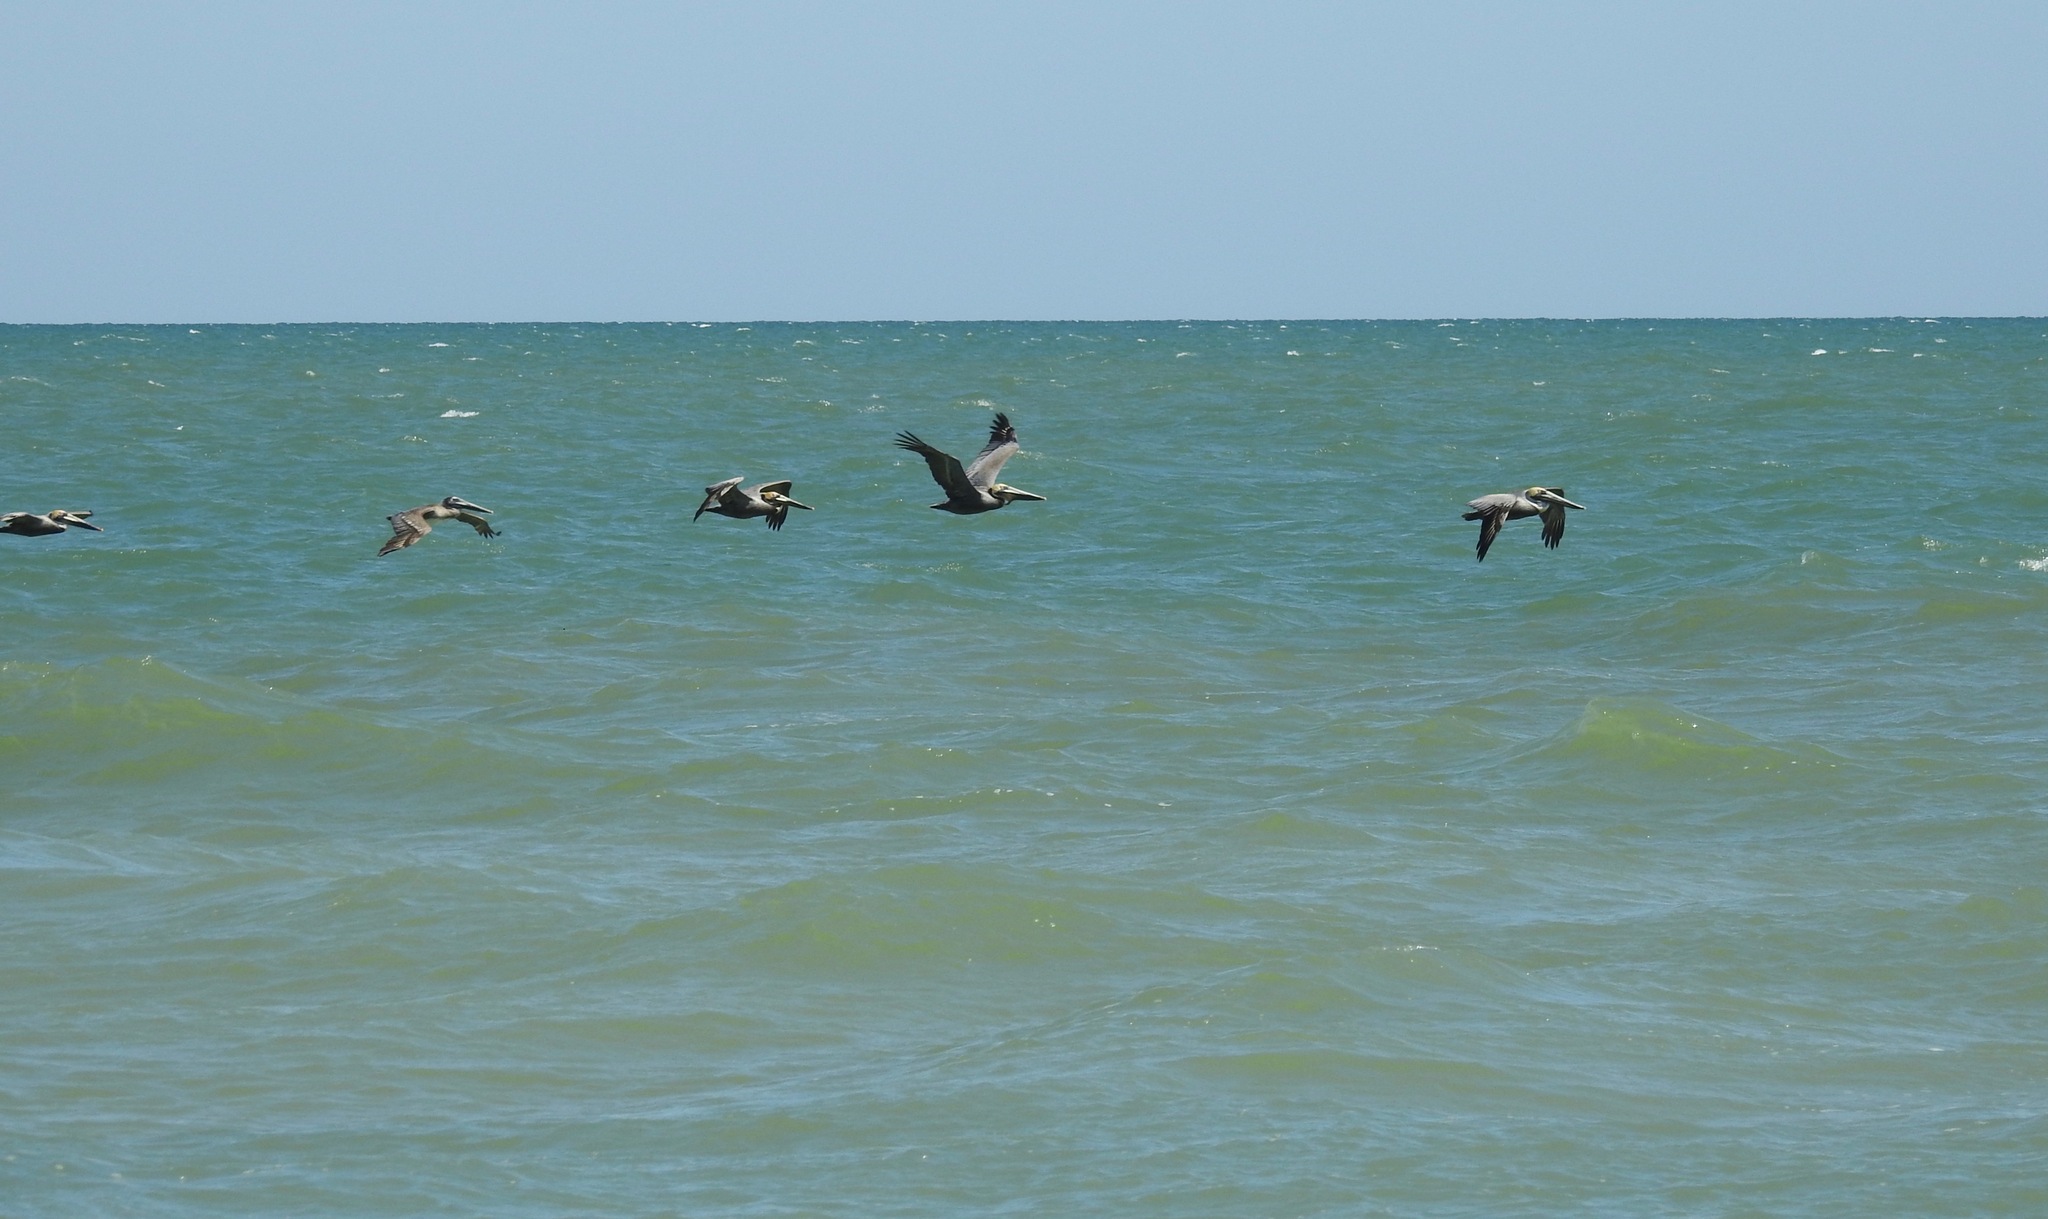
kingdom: Animalia
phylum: Chordata
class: Aves
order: Pelecaniformes
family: Pelecanidae
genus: Pelecanus
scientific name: Pelecanus occidentalis
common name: Brown pelican
